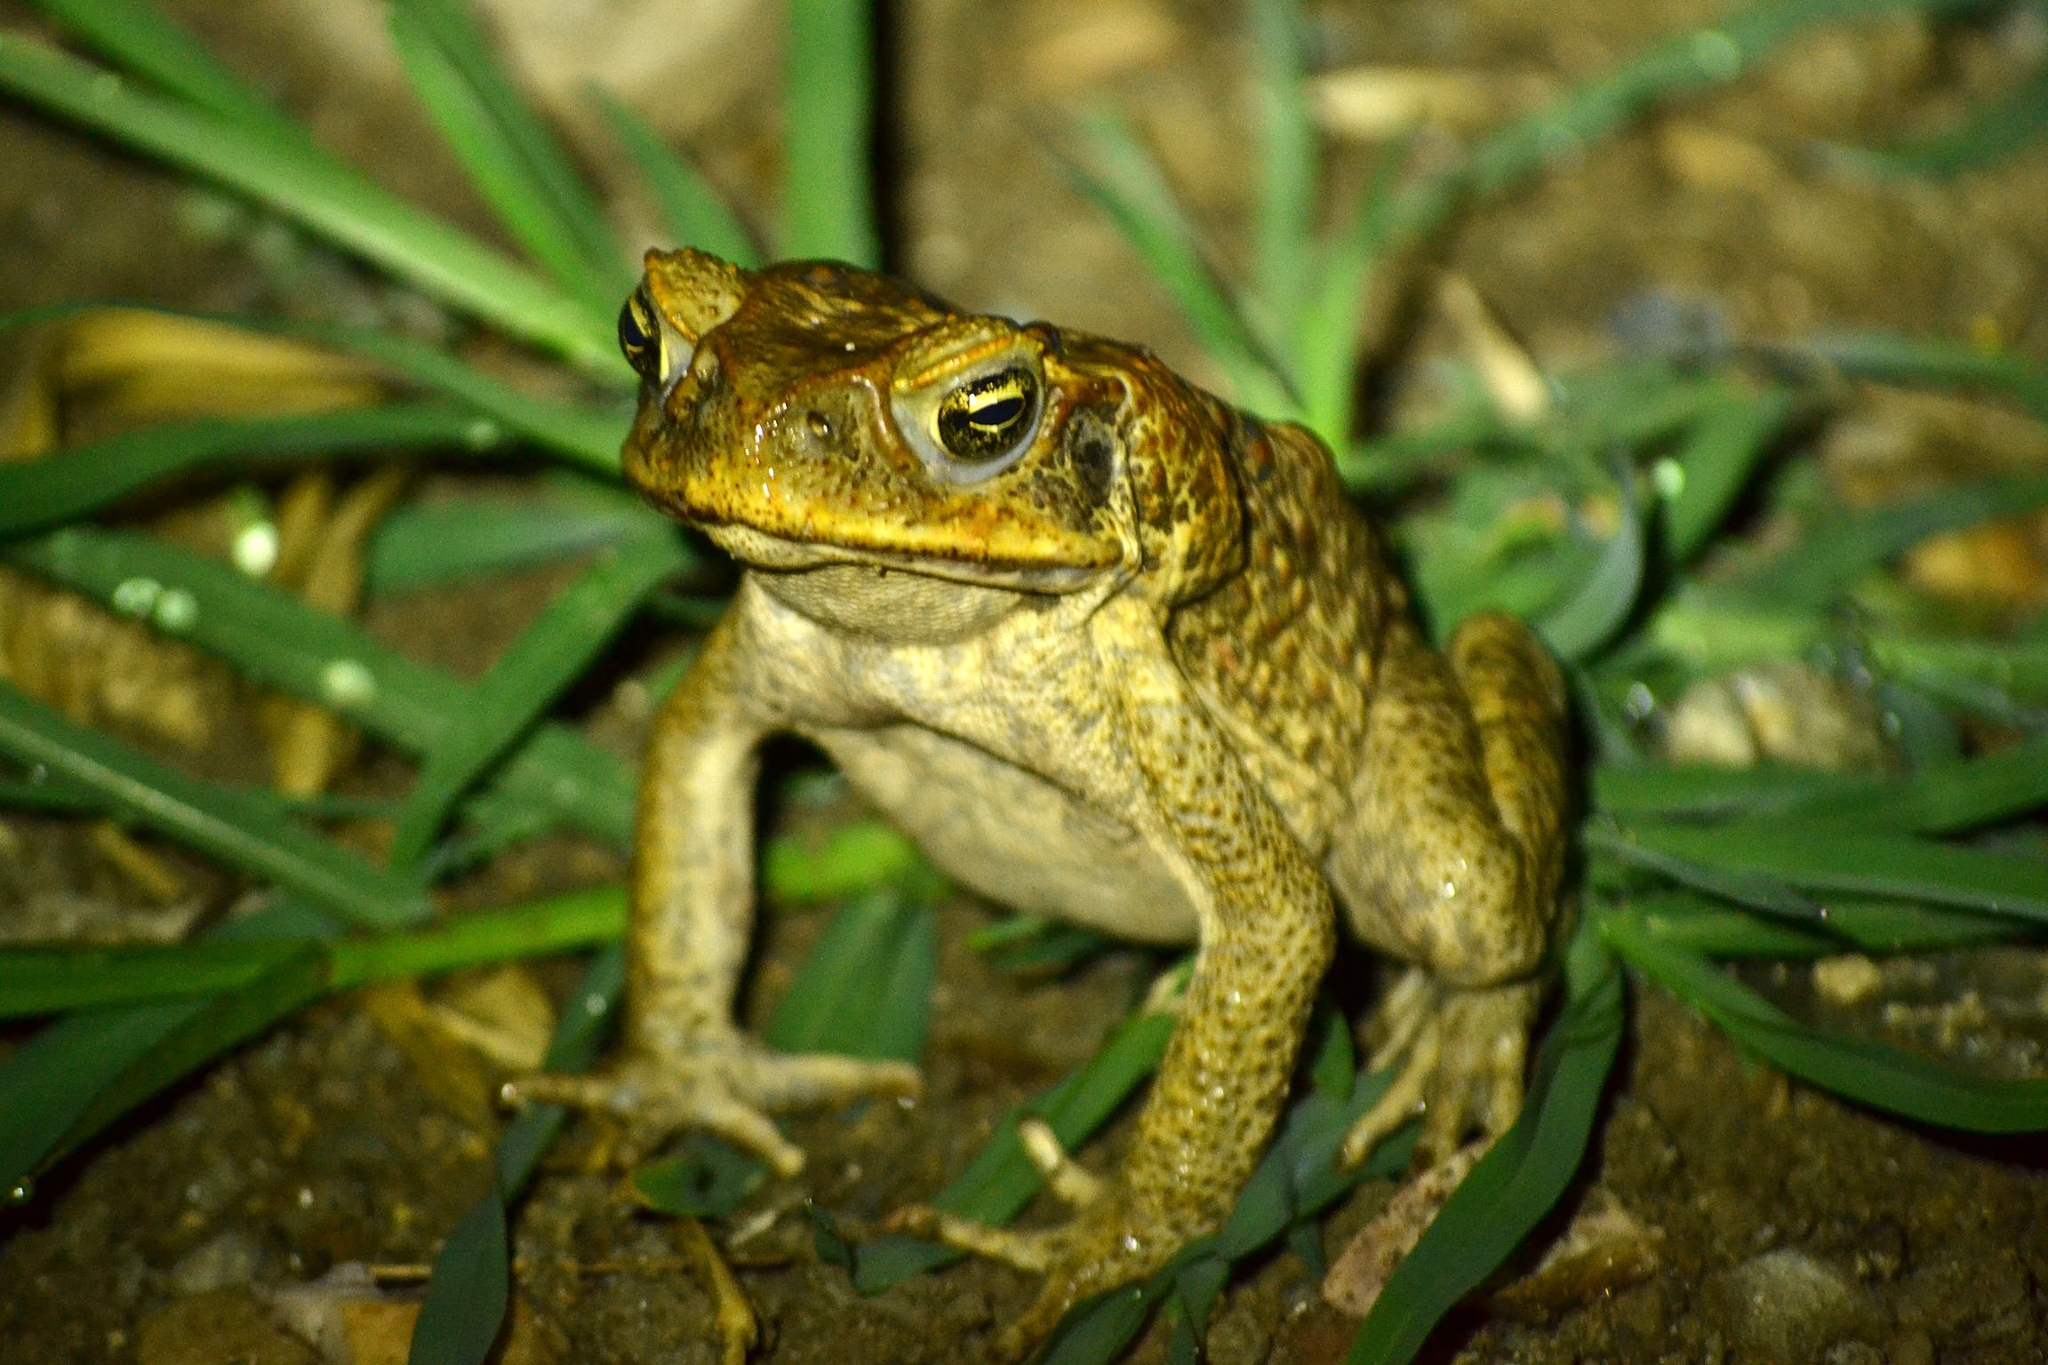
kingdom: Animalia
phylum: Chordata
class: Amphibia
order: Anura
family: Bufonidae
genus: Rhinella
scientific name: Rhinella marina
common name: Cane toad
